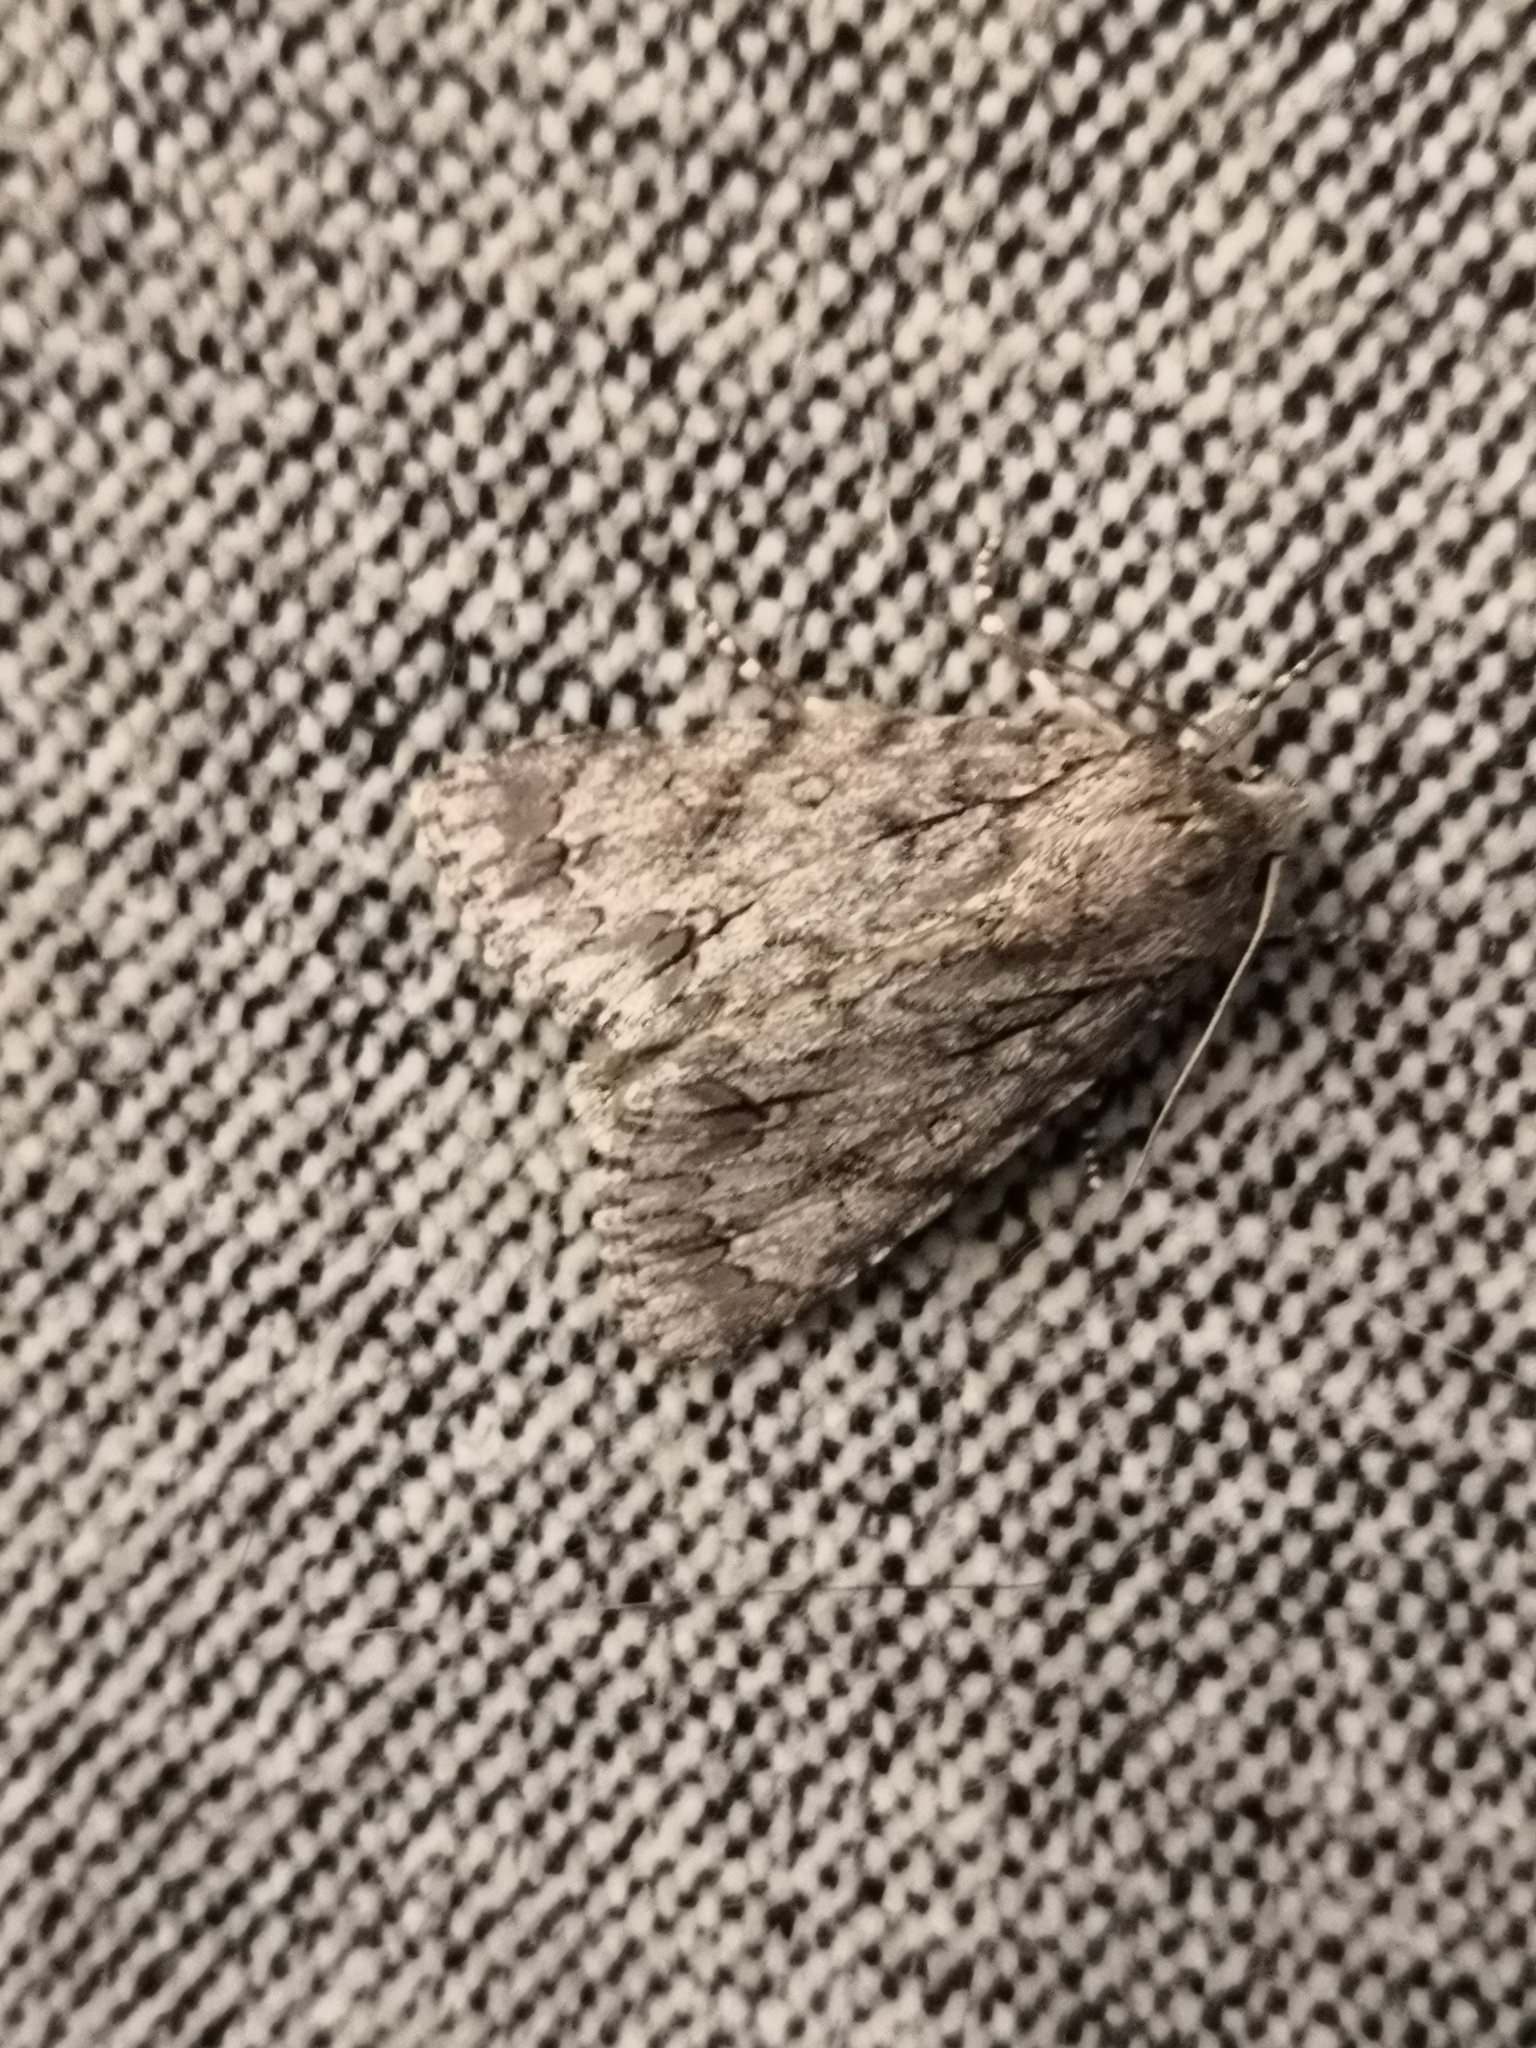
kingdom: Animalia
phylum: Arthropoda
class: Insecta
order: Lepidoptera
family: Noctuidae
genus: Acronicta
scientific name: Acronicta aceris
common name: Sycamore
